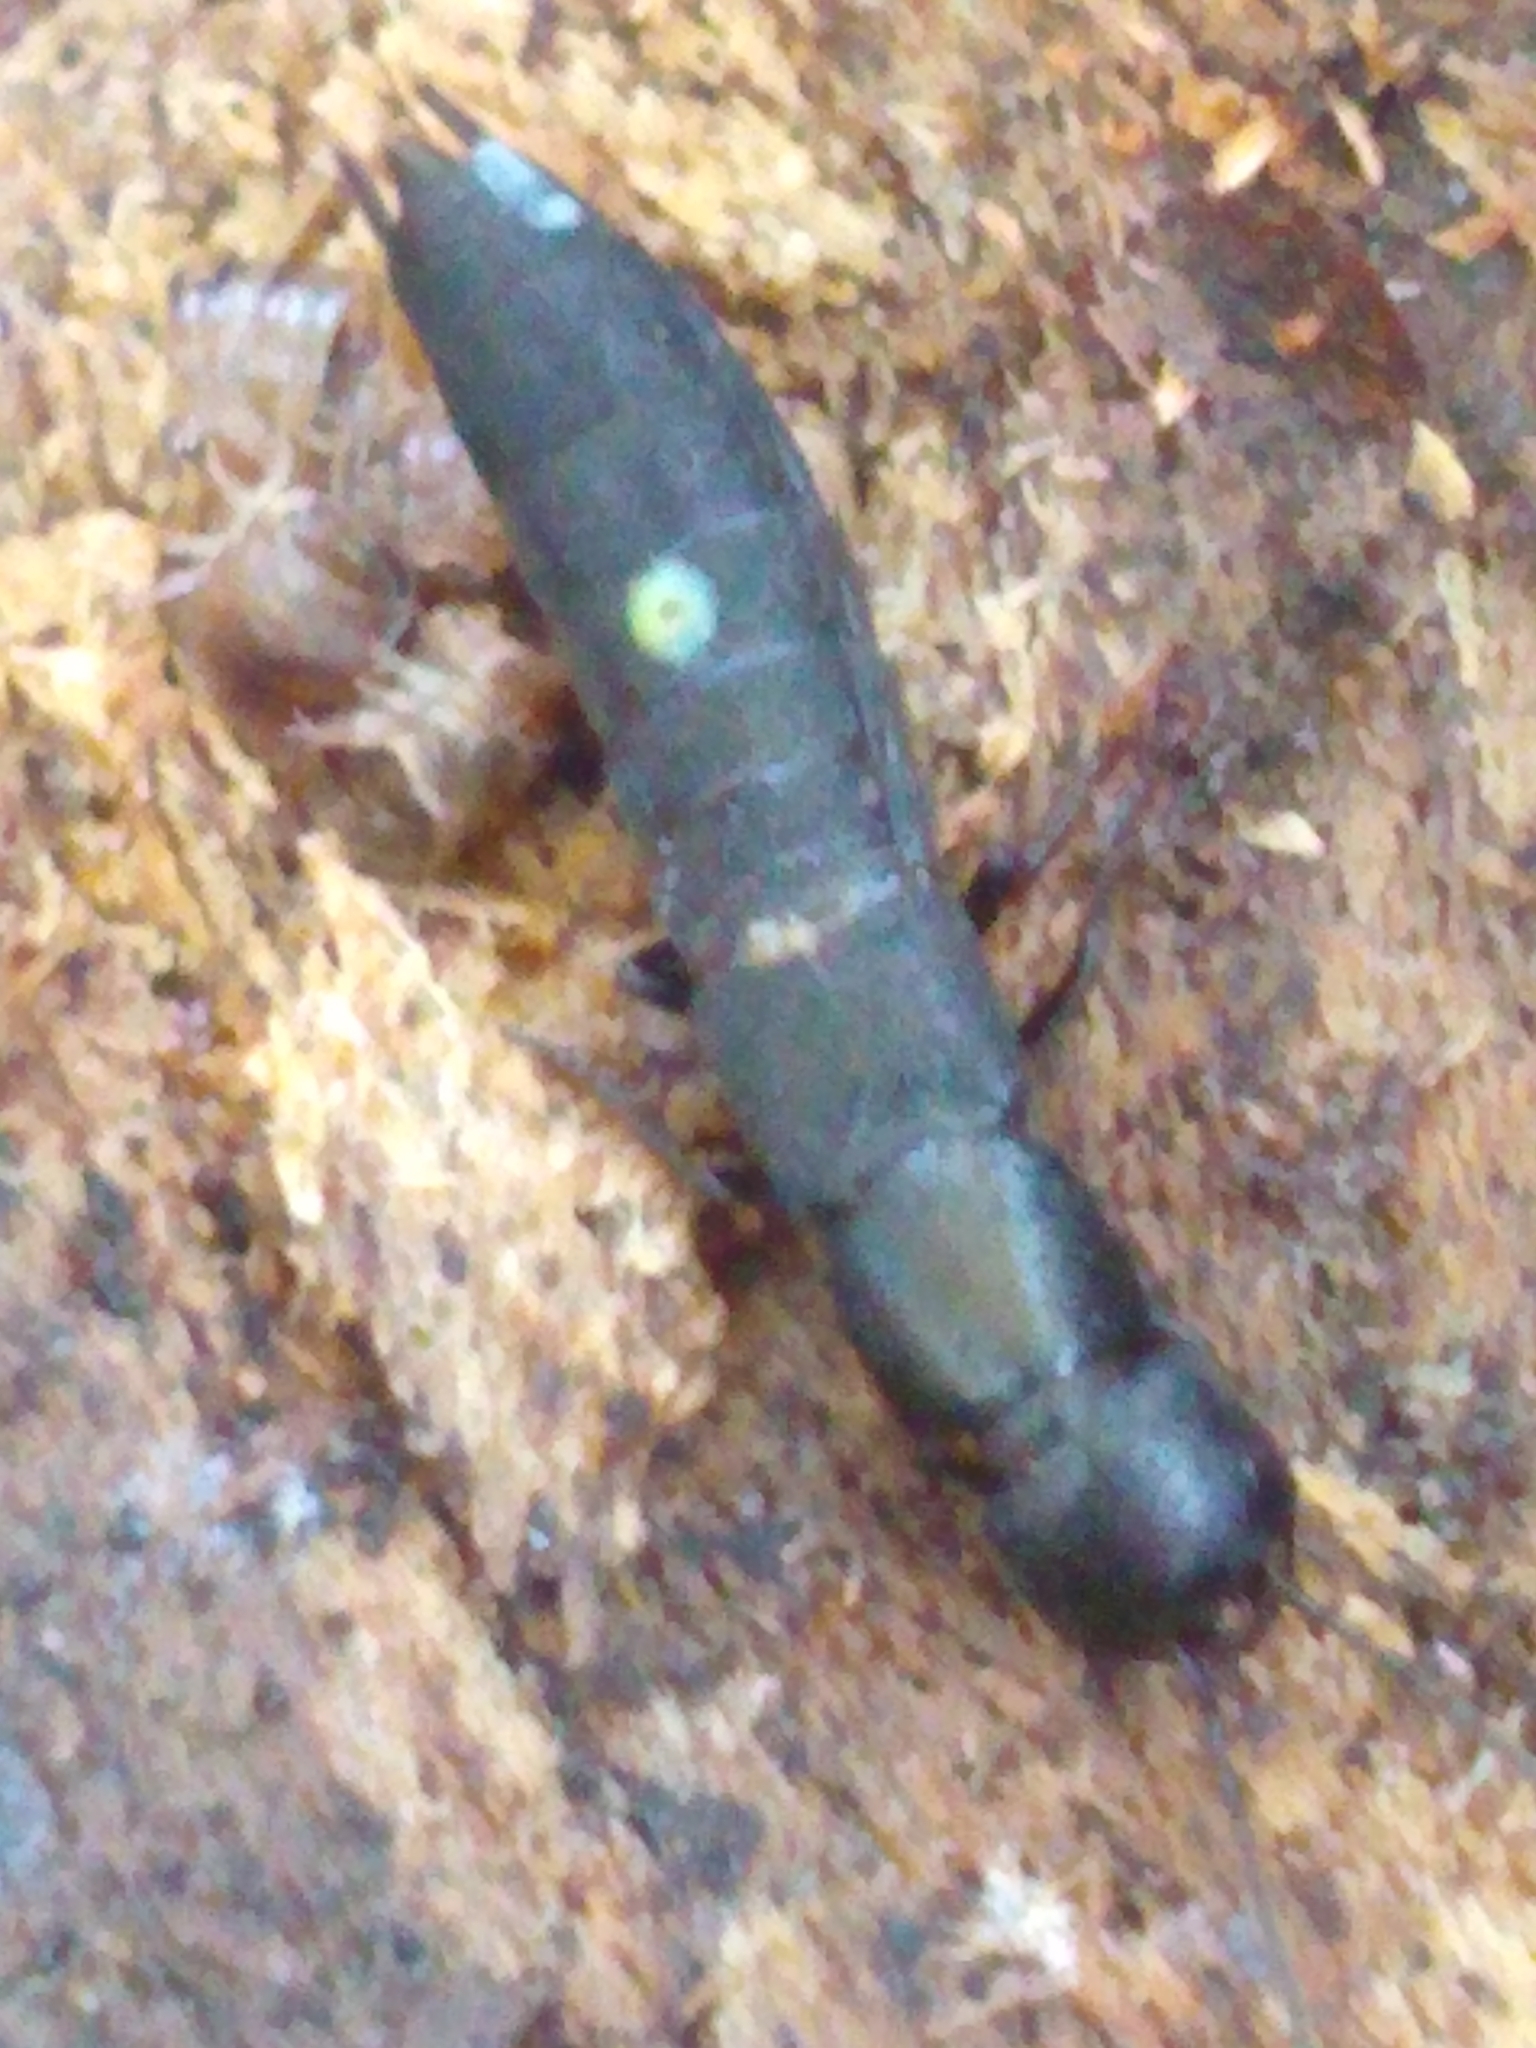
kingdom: Animalia
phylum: Arthropoda
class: Insecta
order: Coleoptera
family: Staphylinidae
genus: Ocypus
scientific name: Ocypus nitens
